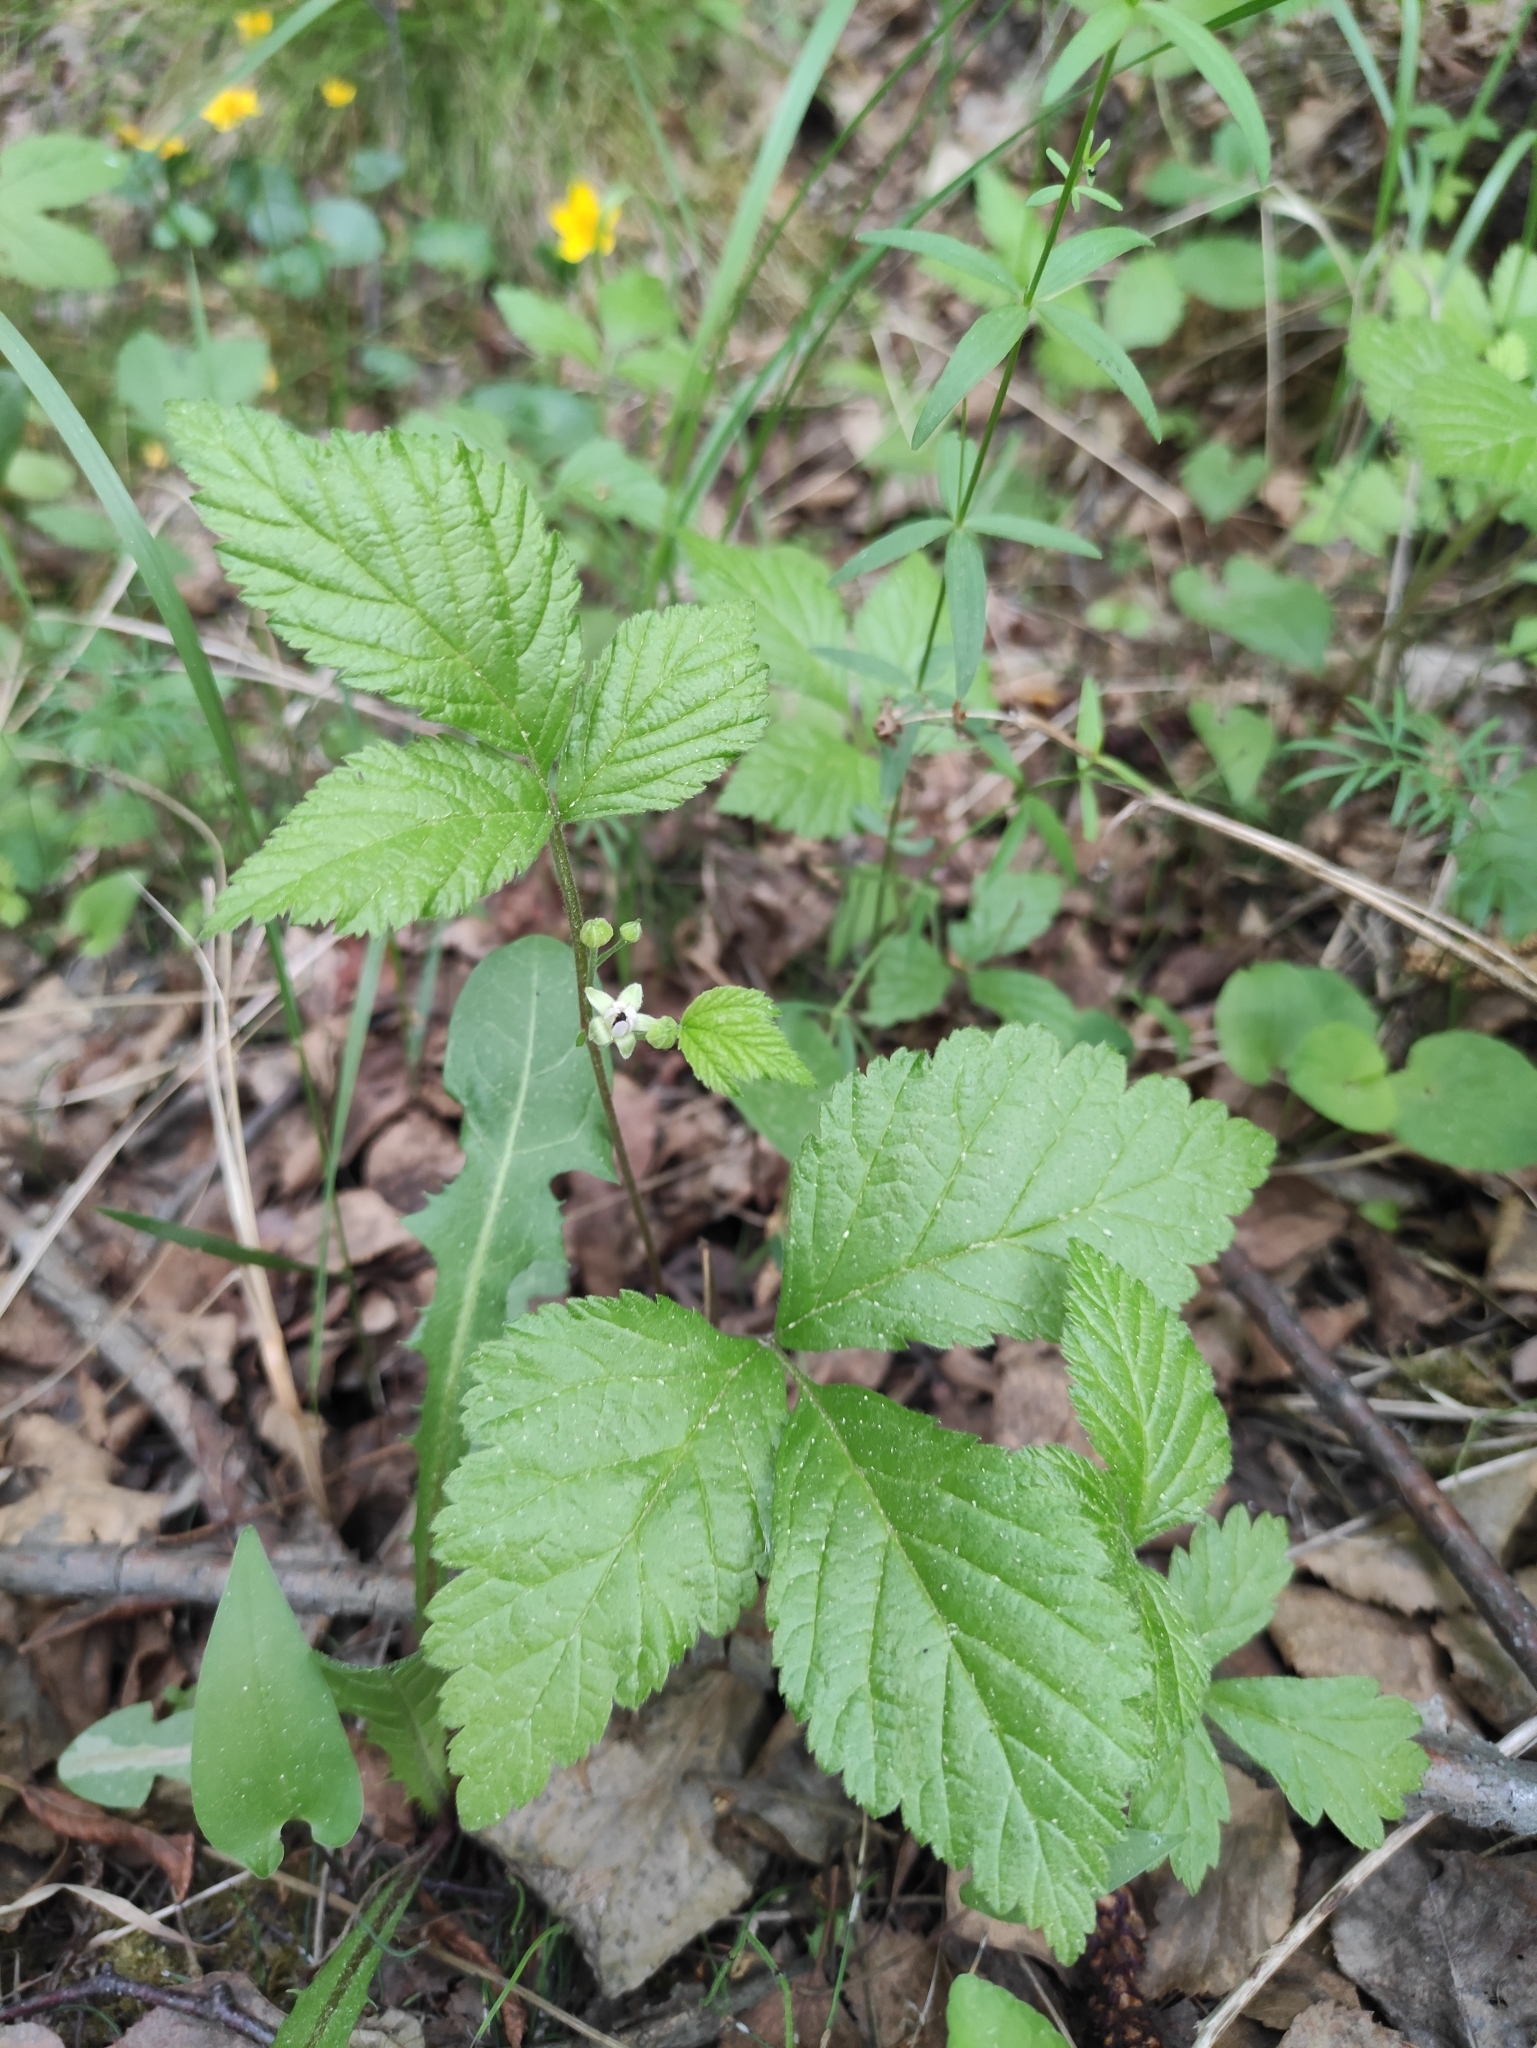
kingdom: Plantae
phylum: Tracheophyta
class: Magnoliopsida
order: Rosales
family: Rosaceae
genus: Rubus
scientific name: Rubus saxatilis
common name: Stone bramble
